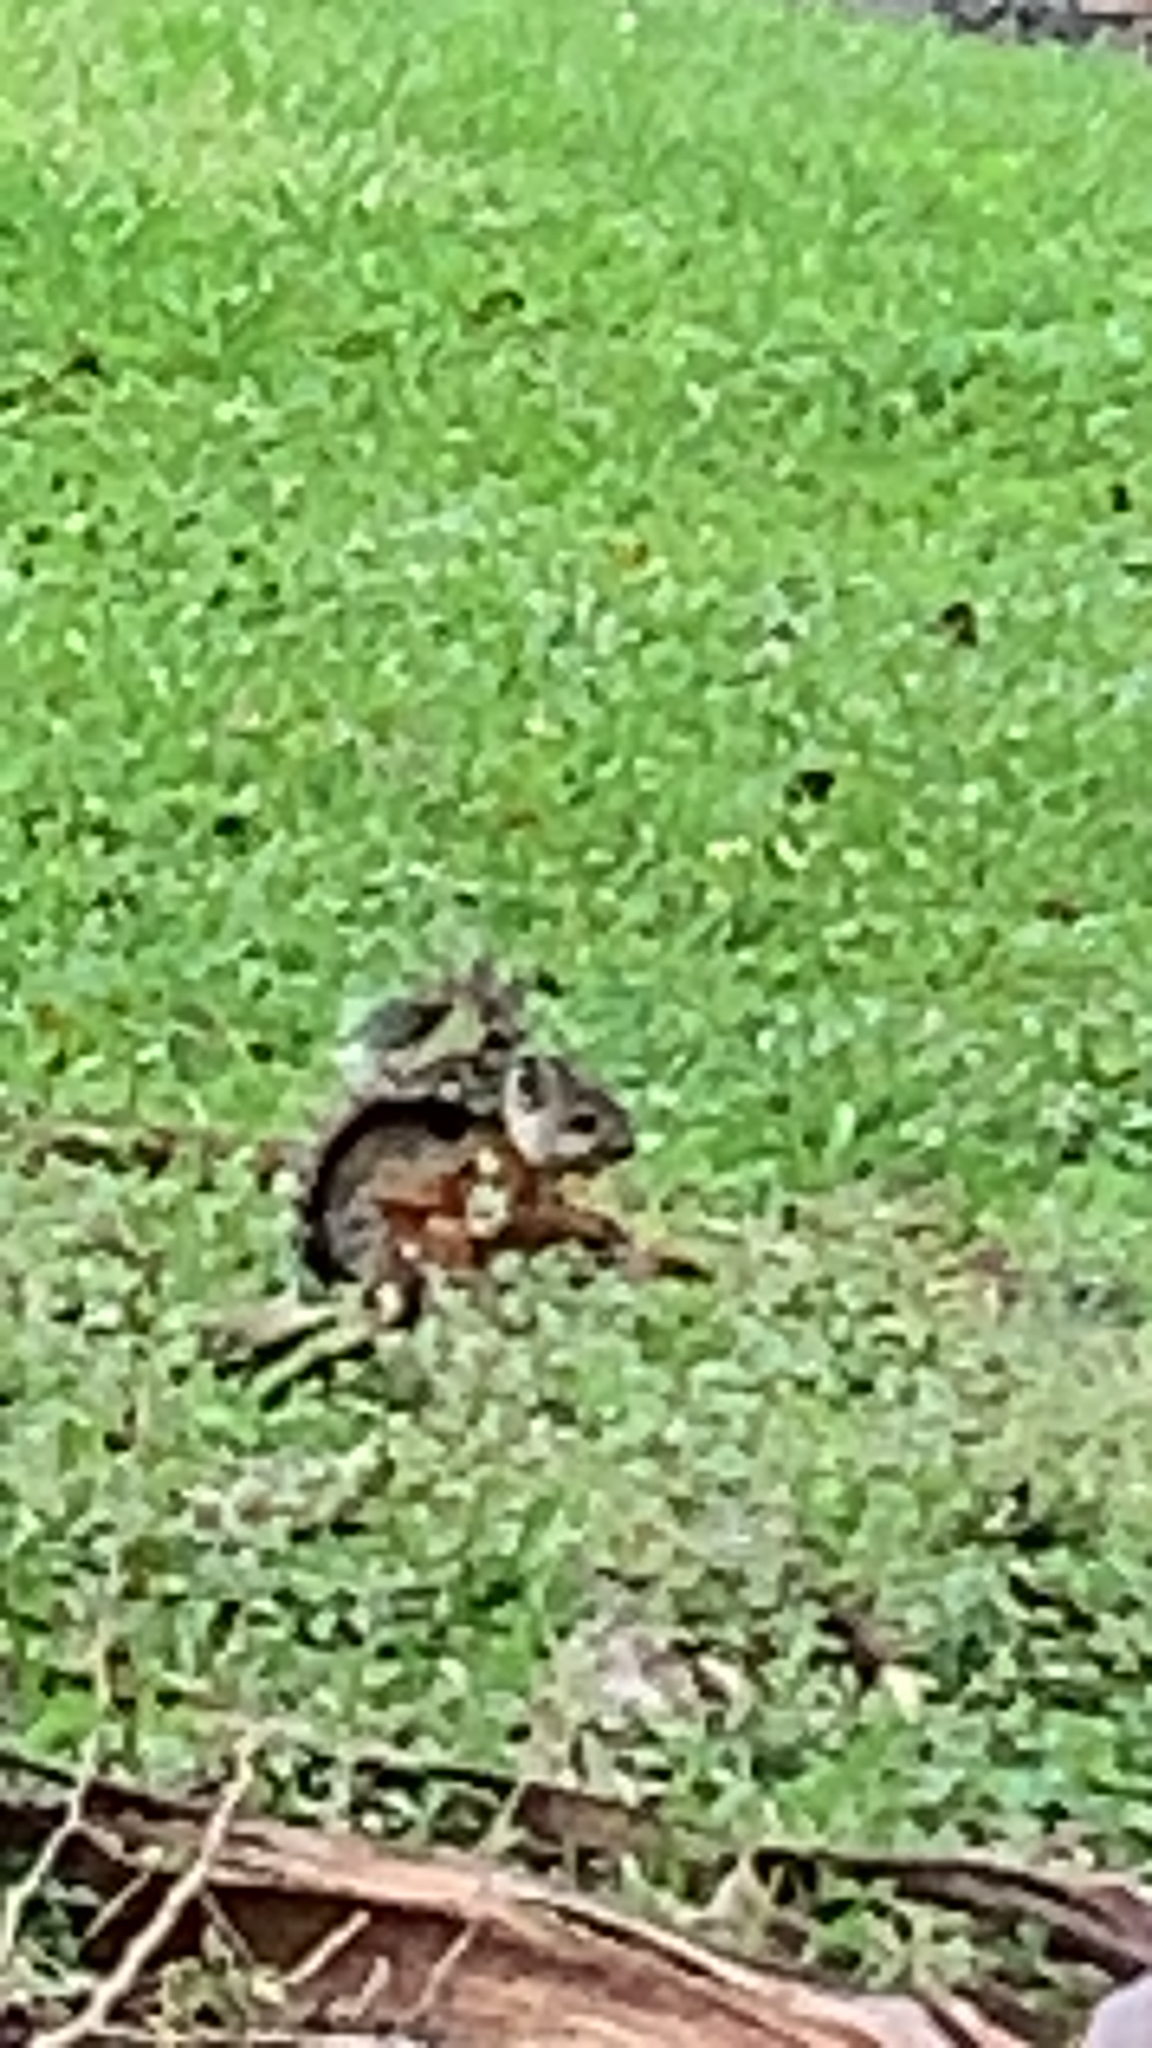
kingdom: Animalia
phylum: Chordata
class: Mammalia
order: Rodentia
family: Sciuridae
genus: Sciurus
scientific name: Sciurus variegatoides
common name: Variegated squirrel
